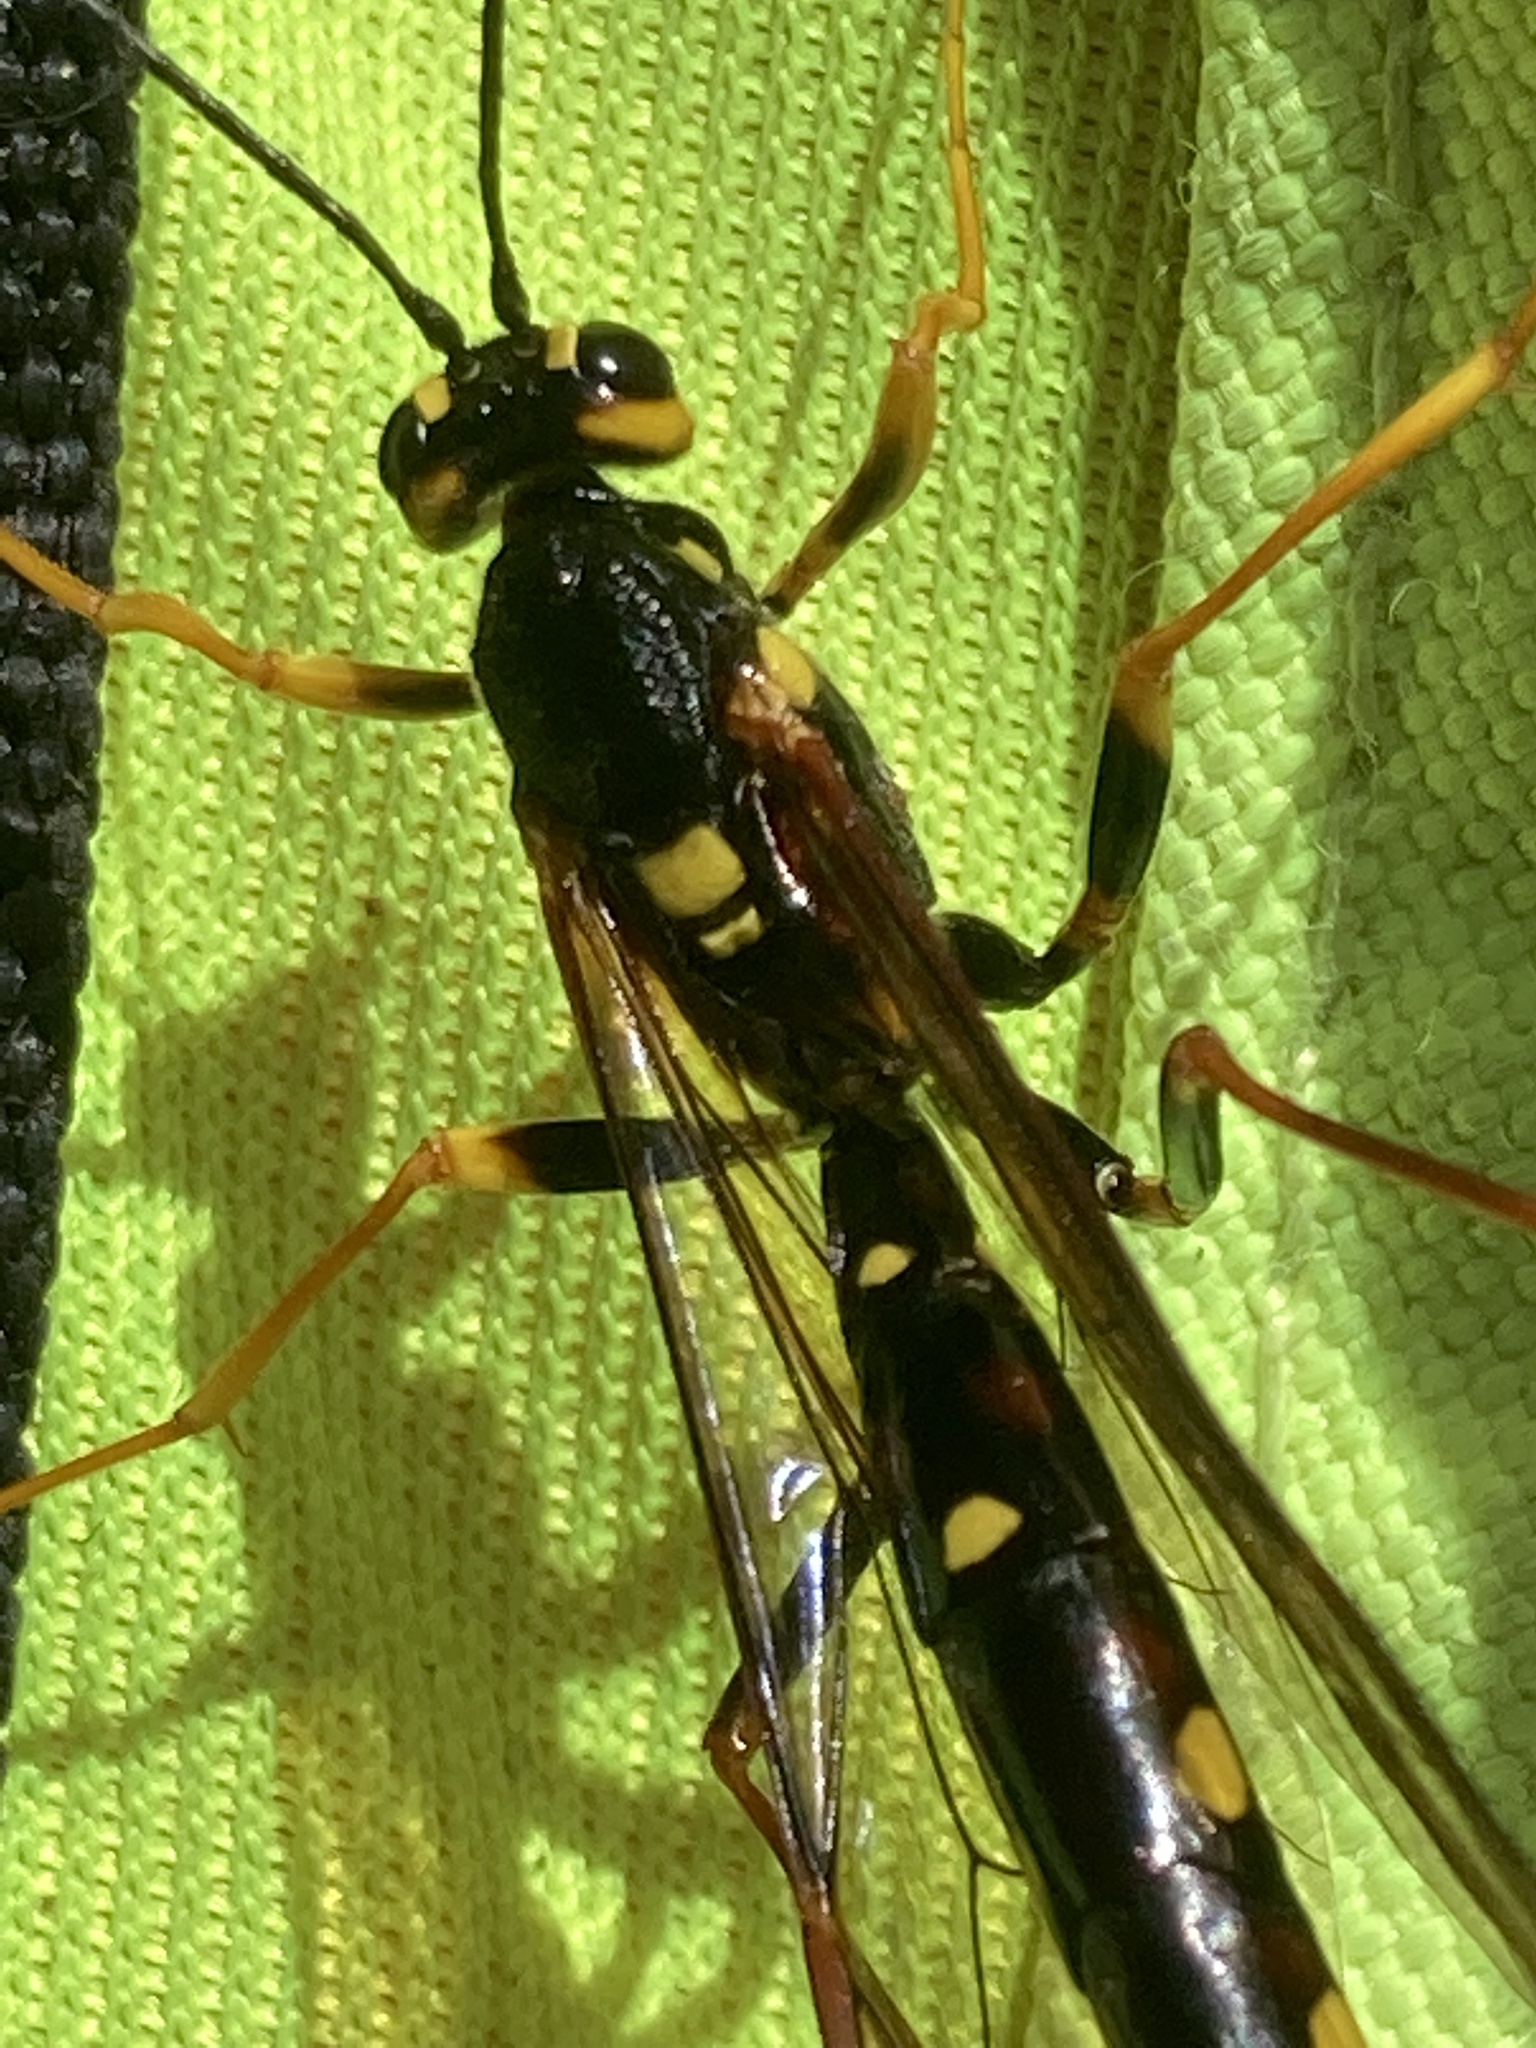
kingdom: Animalia
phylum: Arthropoda
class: Insecta
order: Hymenoptera
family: Ichneumonidae
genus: Megarhyssa
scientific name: Megarhyssa nortoni
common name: Norton's giant ichneumonid wasp
